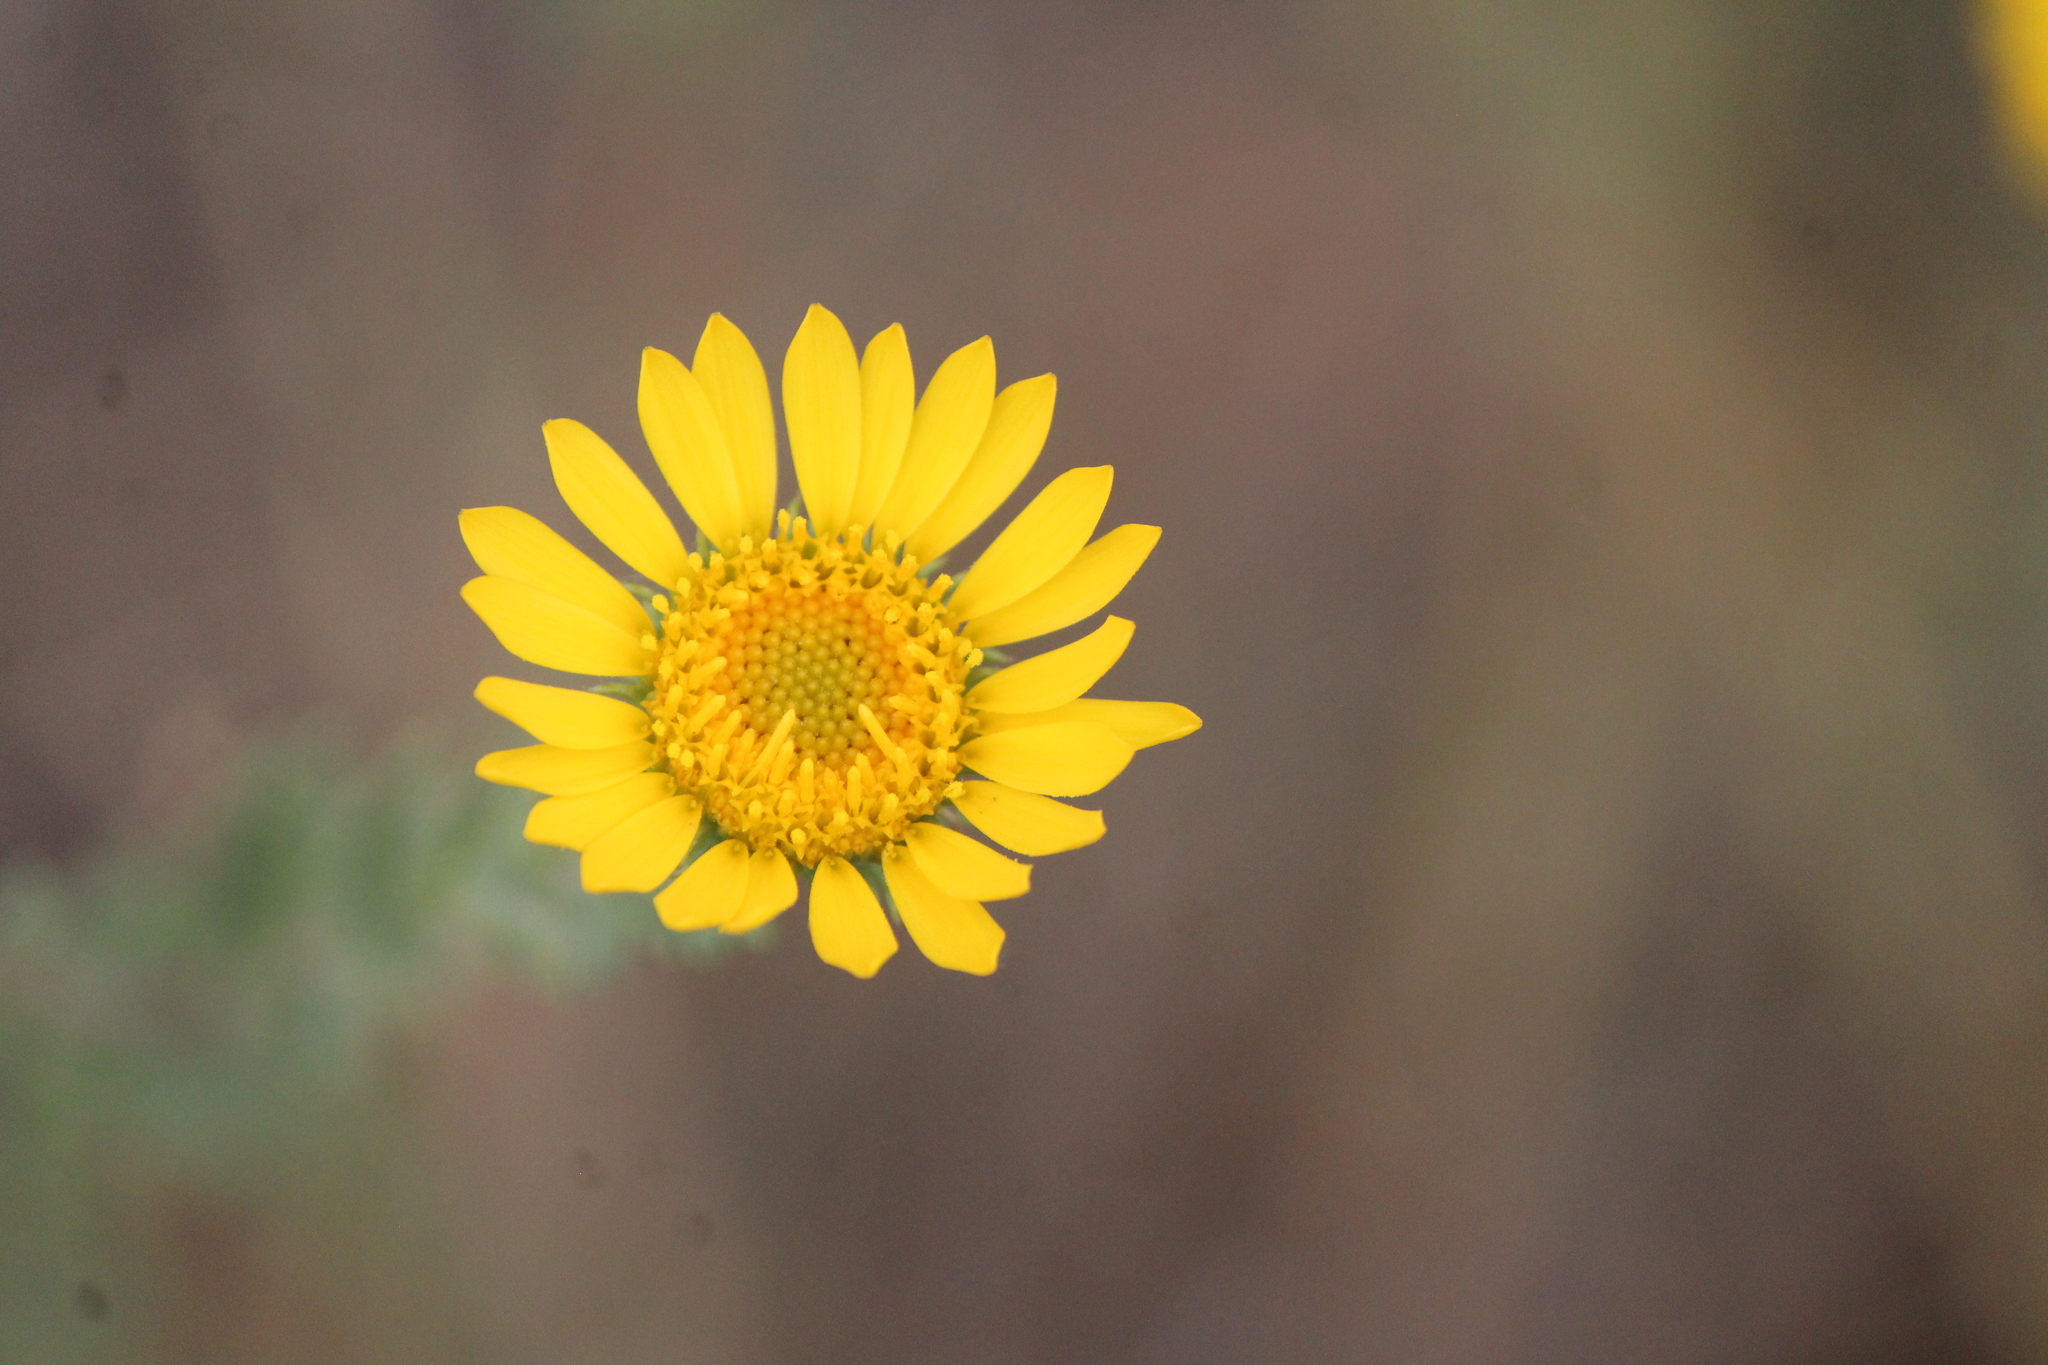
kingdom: Plantae
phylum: Tracheophyta
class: Magnoliopsida
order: Asterales
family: Asteraceae
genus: Grindelia
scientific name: Grindelia inuloides
